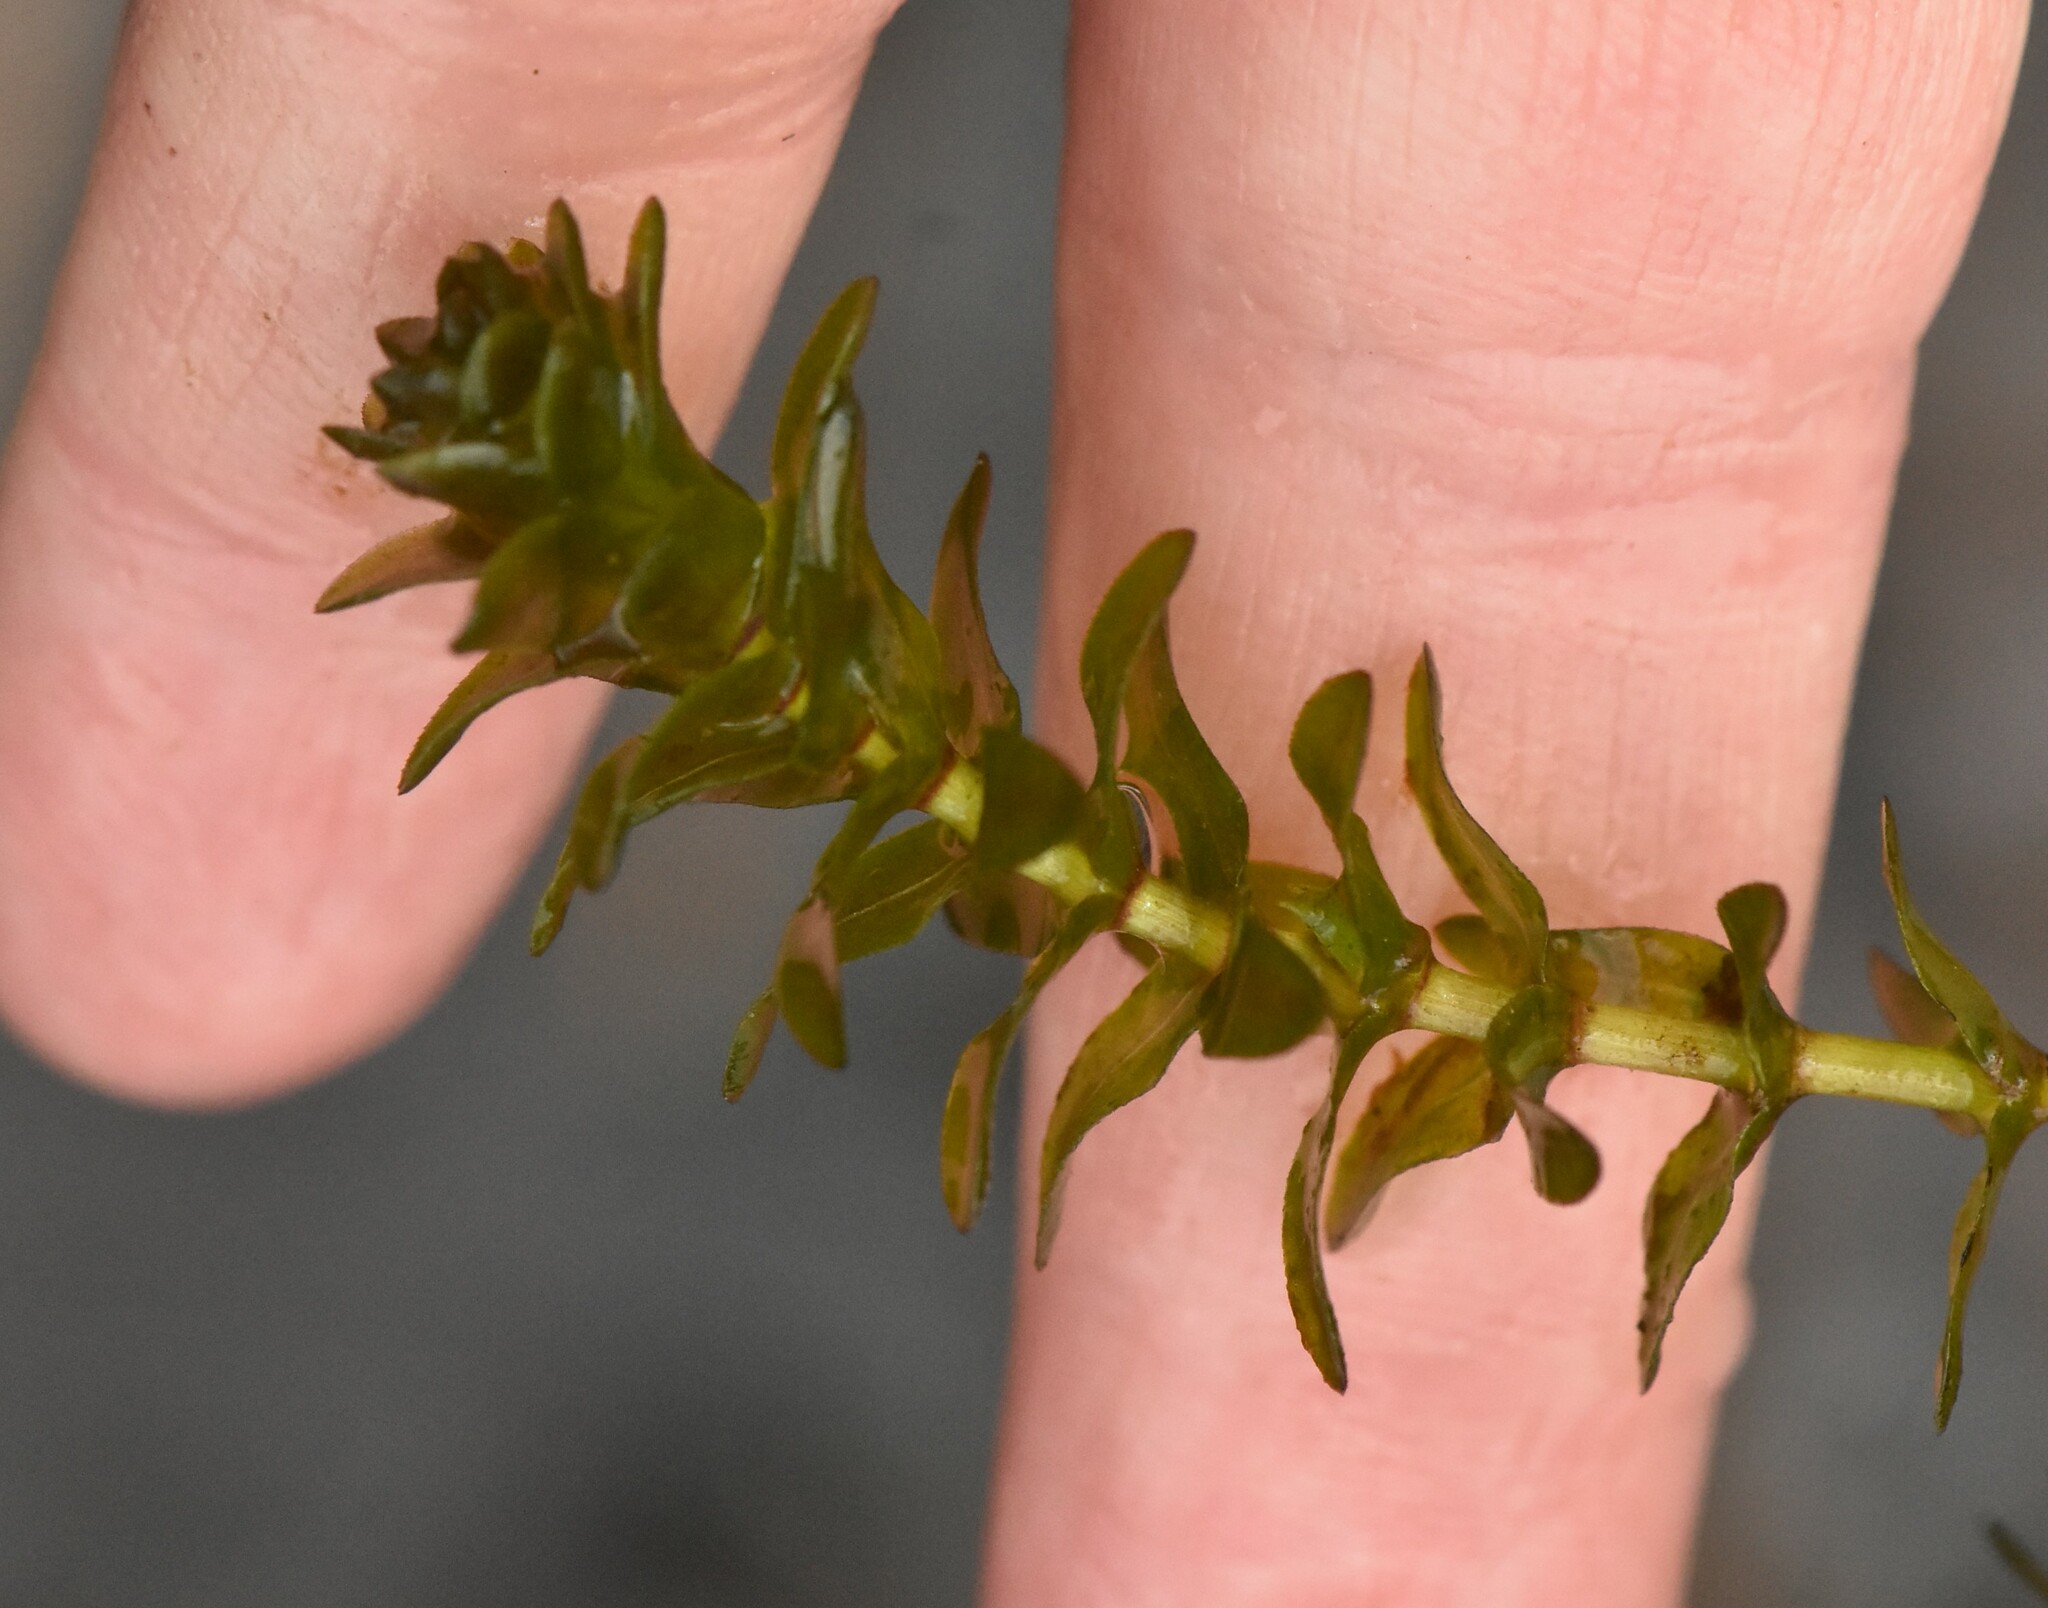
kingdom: Plantae
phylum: Tracheophyta
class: Liliopsida
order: Alismatales
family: Hydrocharitaceae
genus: Elodea
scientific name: Elodea canadensis
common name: Canadian waterweed
